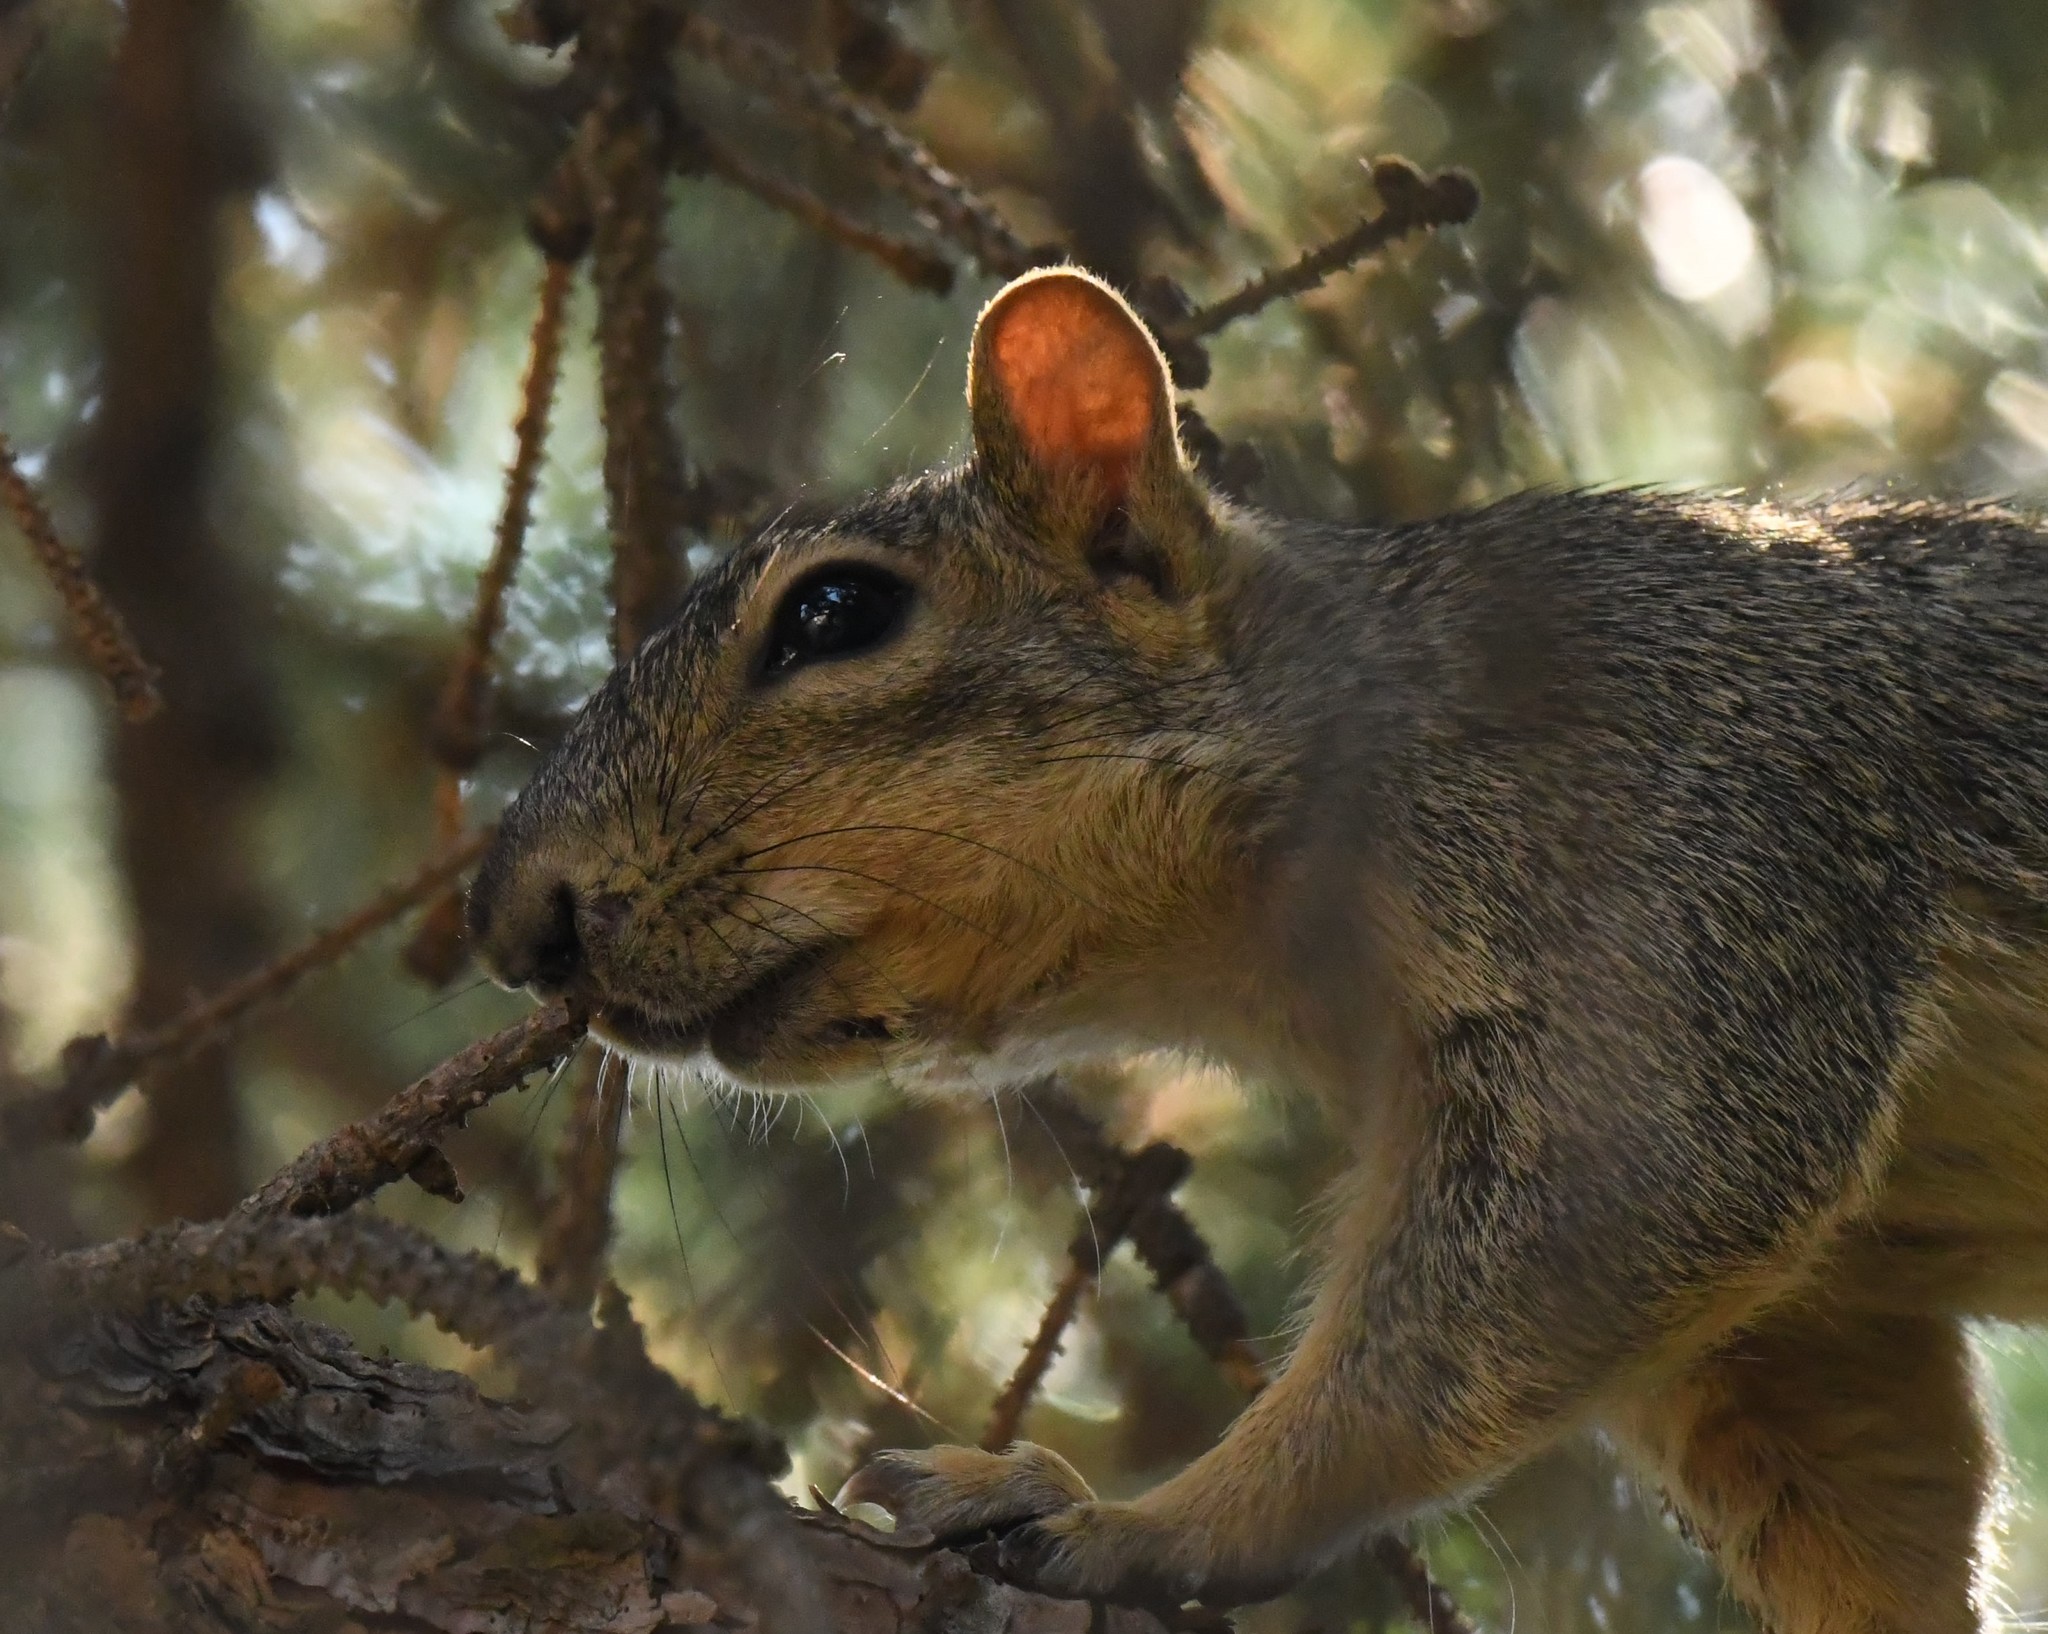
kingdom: Animalia
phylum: Chordata
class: Mammalia
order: Rodentia
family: Sciuridae
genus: Sciurus
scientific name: Sciurus niger
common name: Fox squirrel
